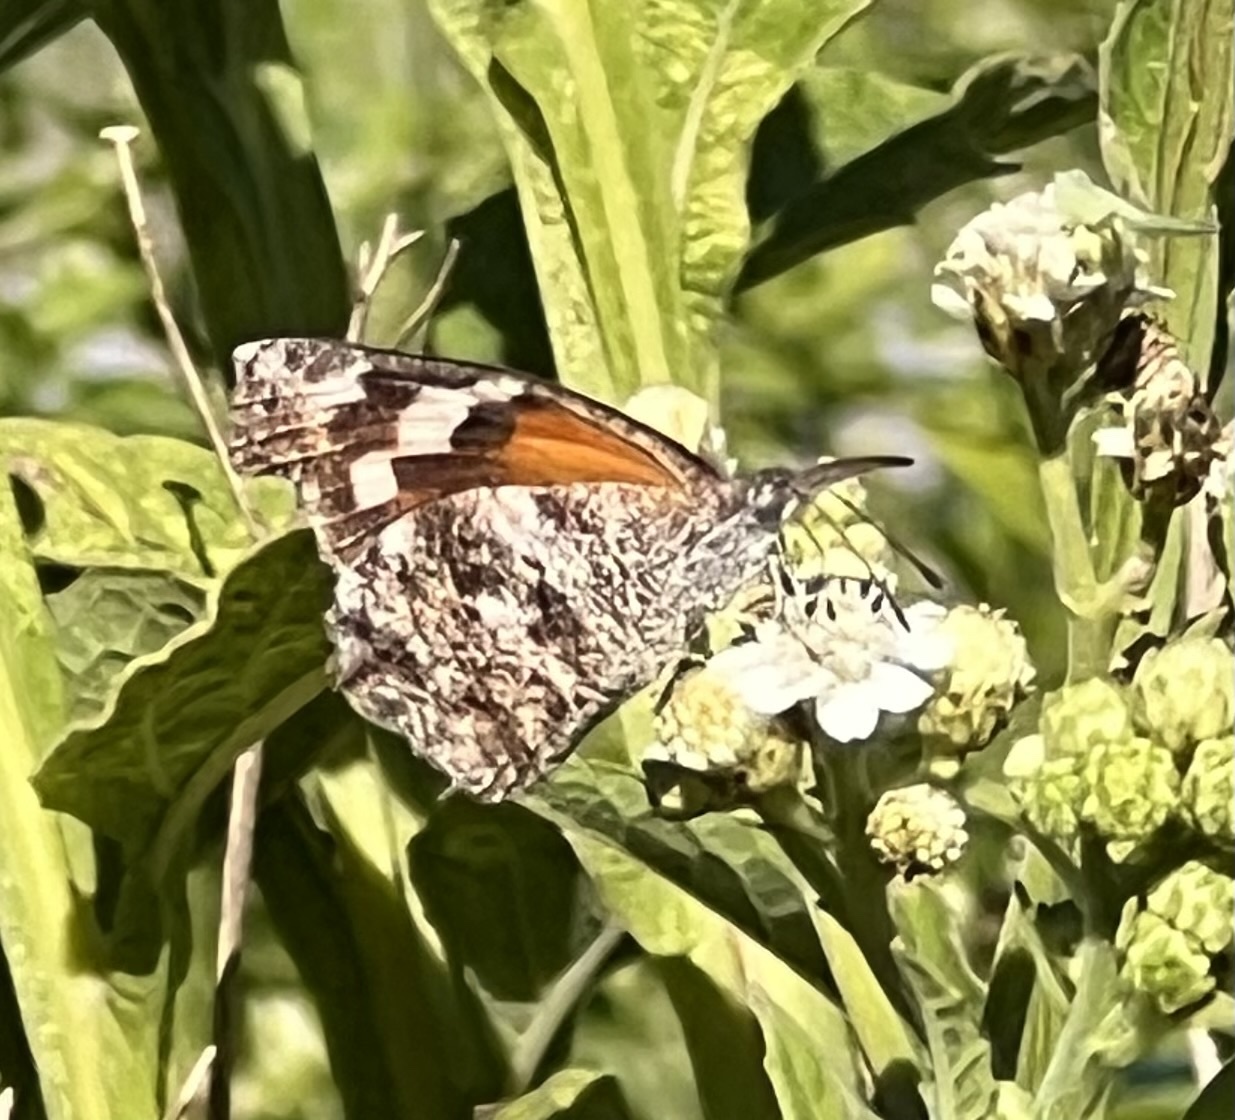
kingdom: Animalia
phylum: Arthropoda
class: Insecta
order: Lepidoptera
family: Nymphalidae
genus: Libytheana
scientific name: Libytheana carinenta
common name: American snout
